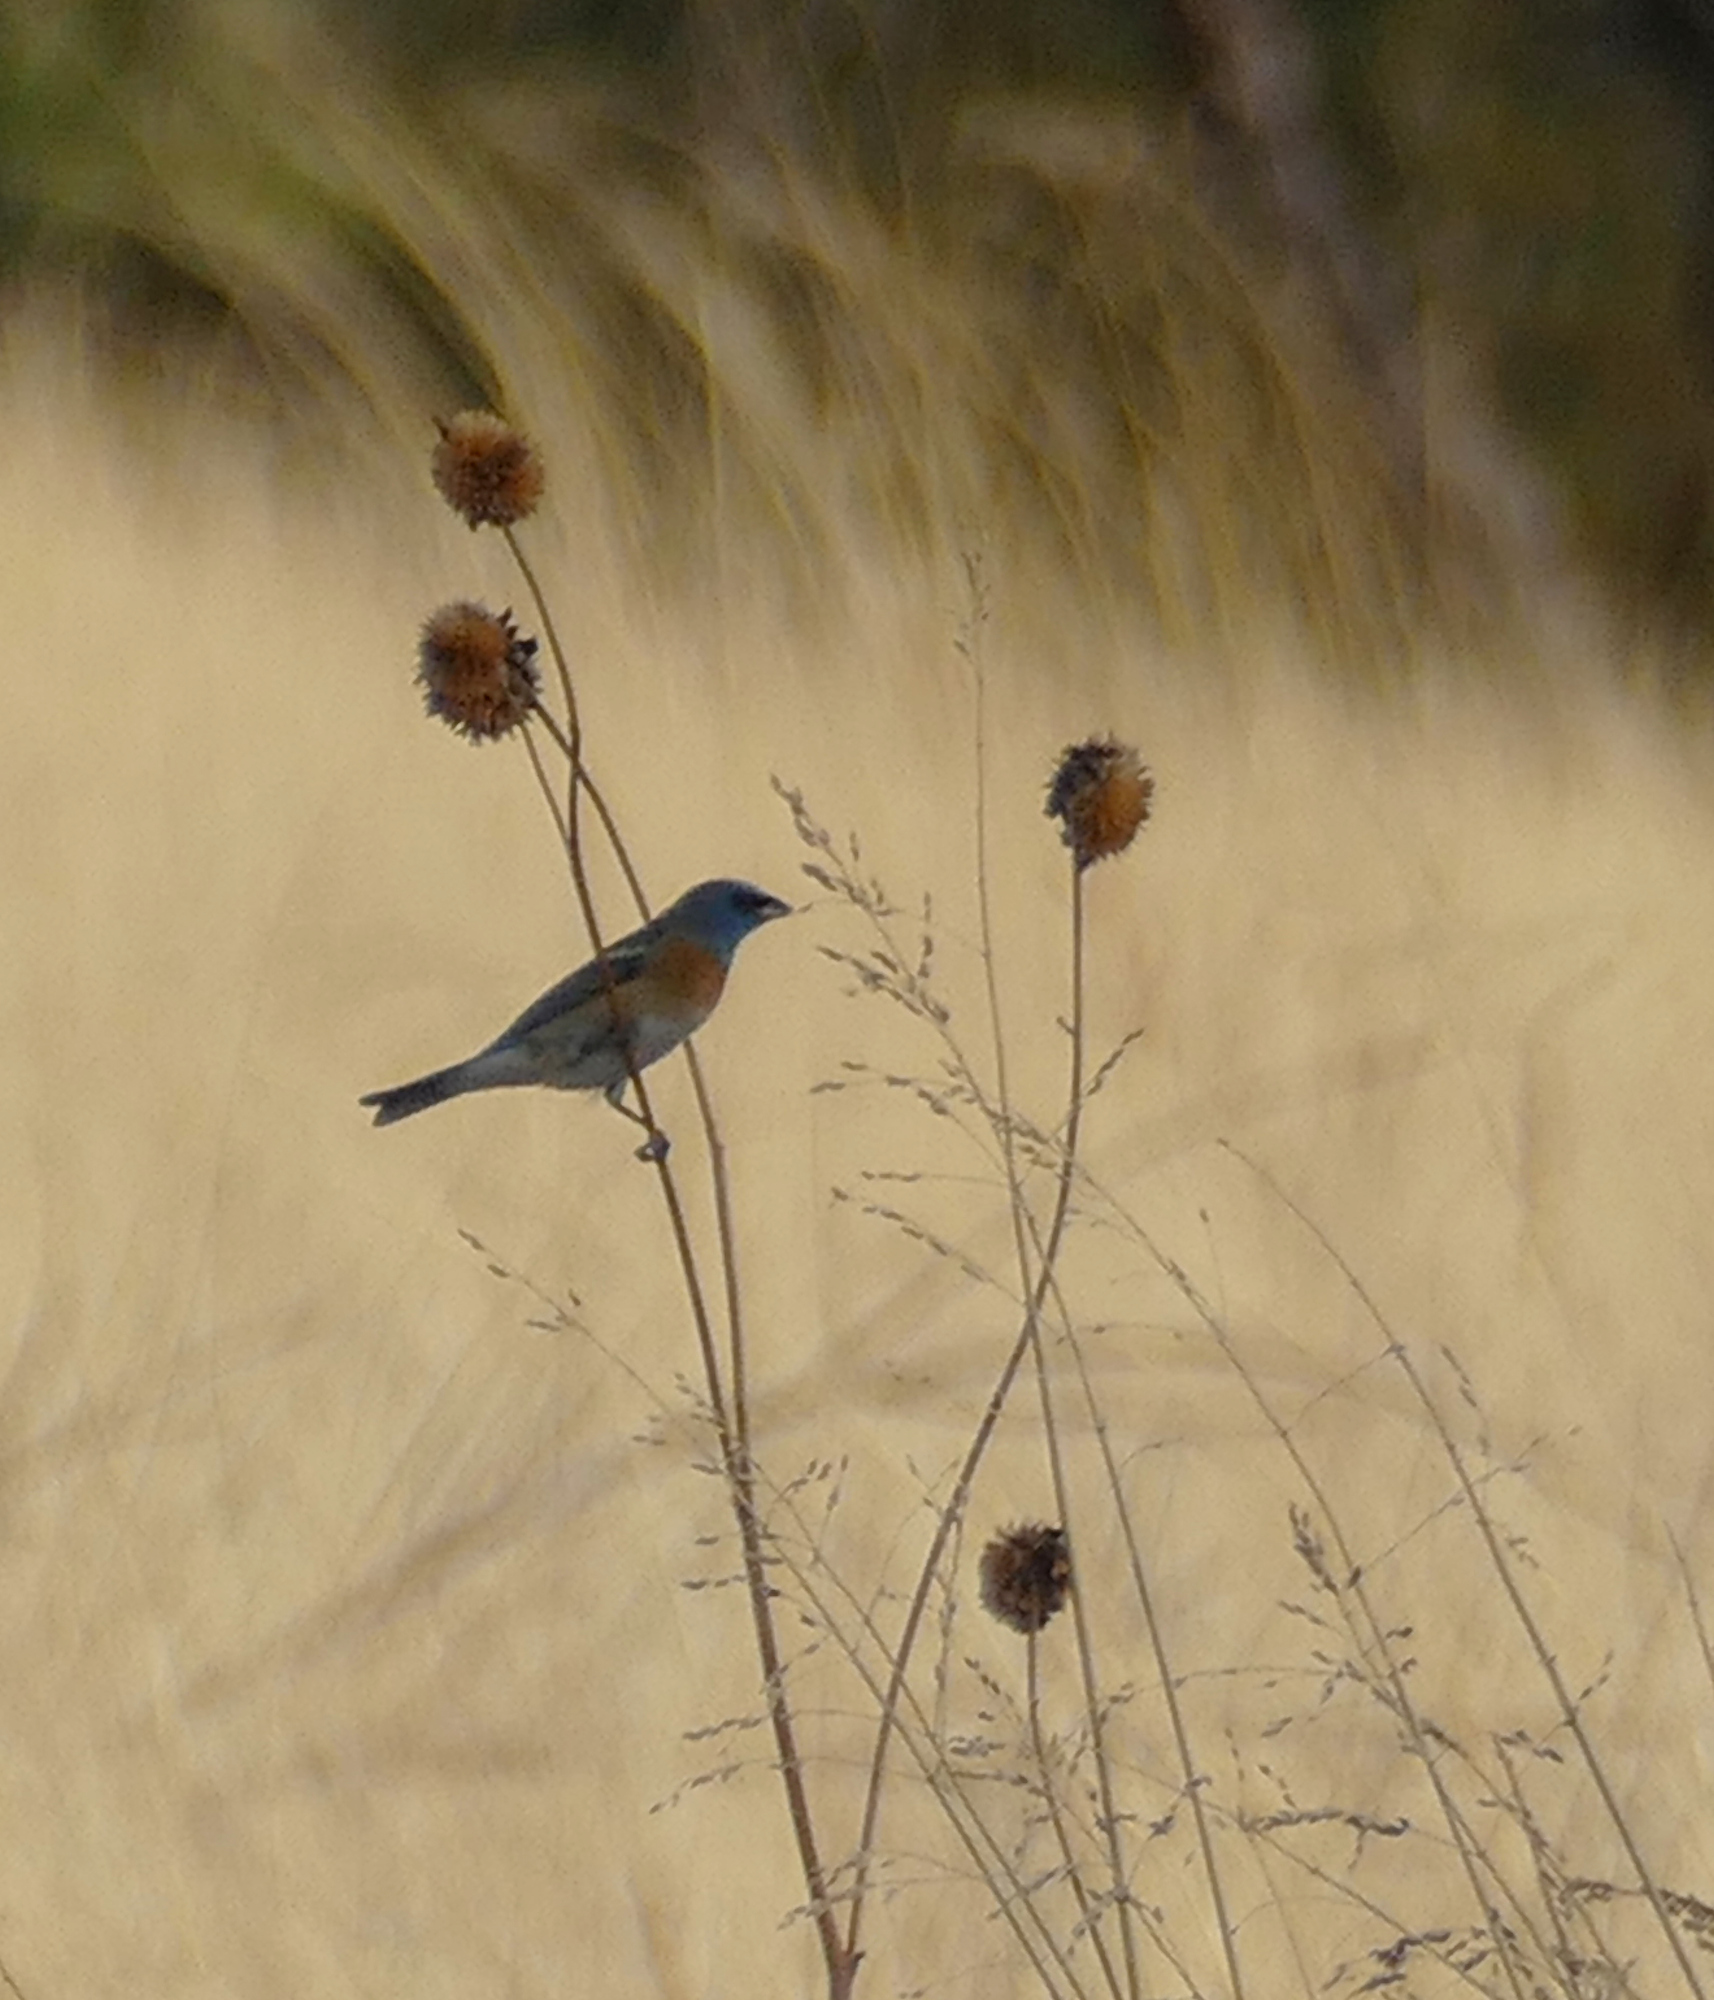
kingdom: Animalia
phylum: Chordata
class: Aves
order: Passeriformes
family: Cardinalidae
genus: Passerina
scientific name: Passerina amoena
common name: Lazuli bunting
